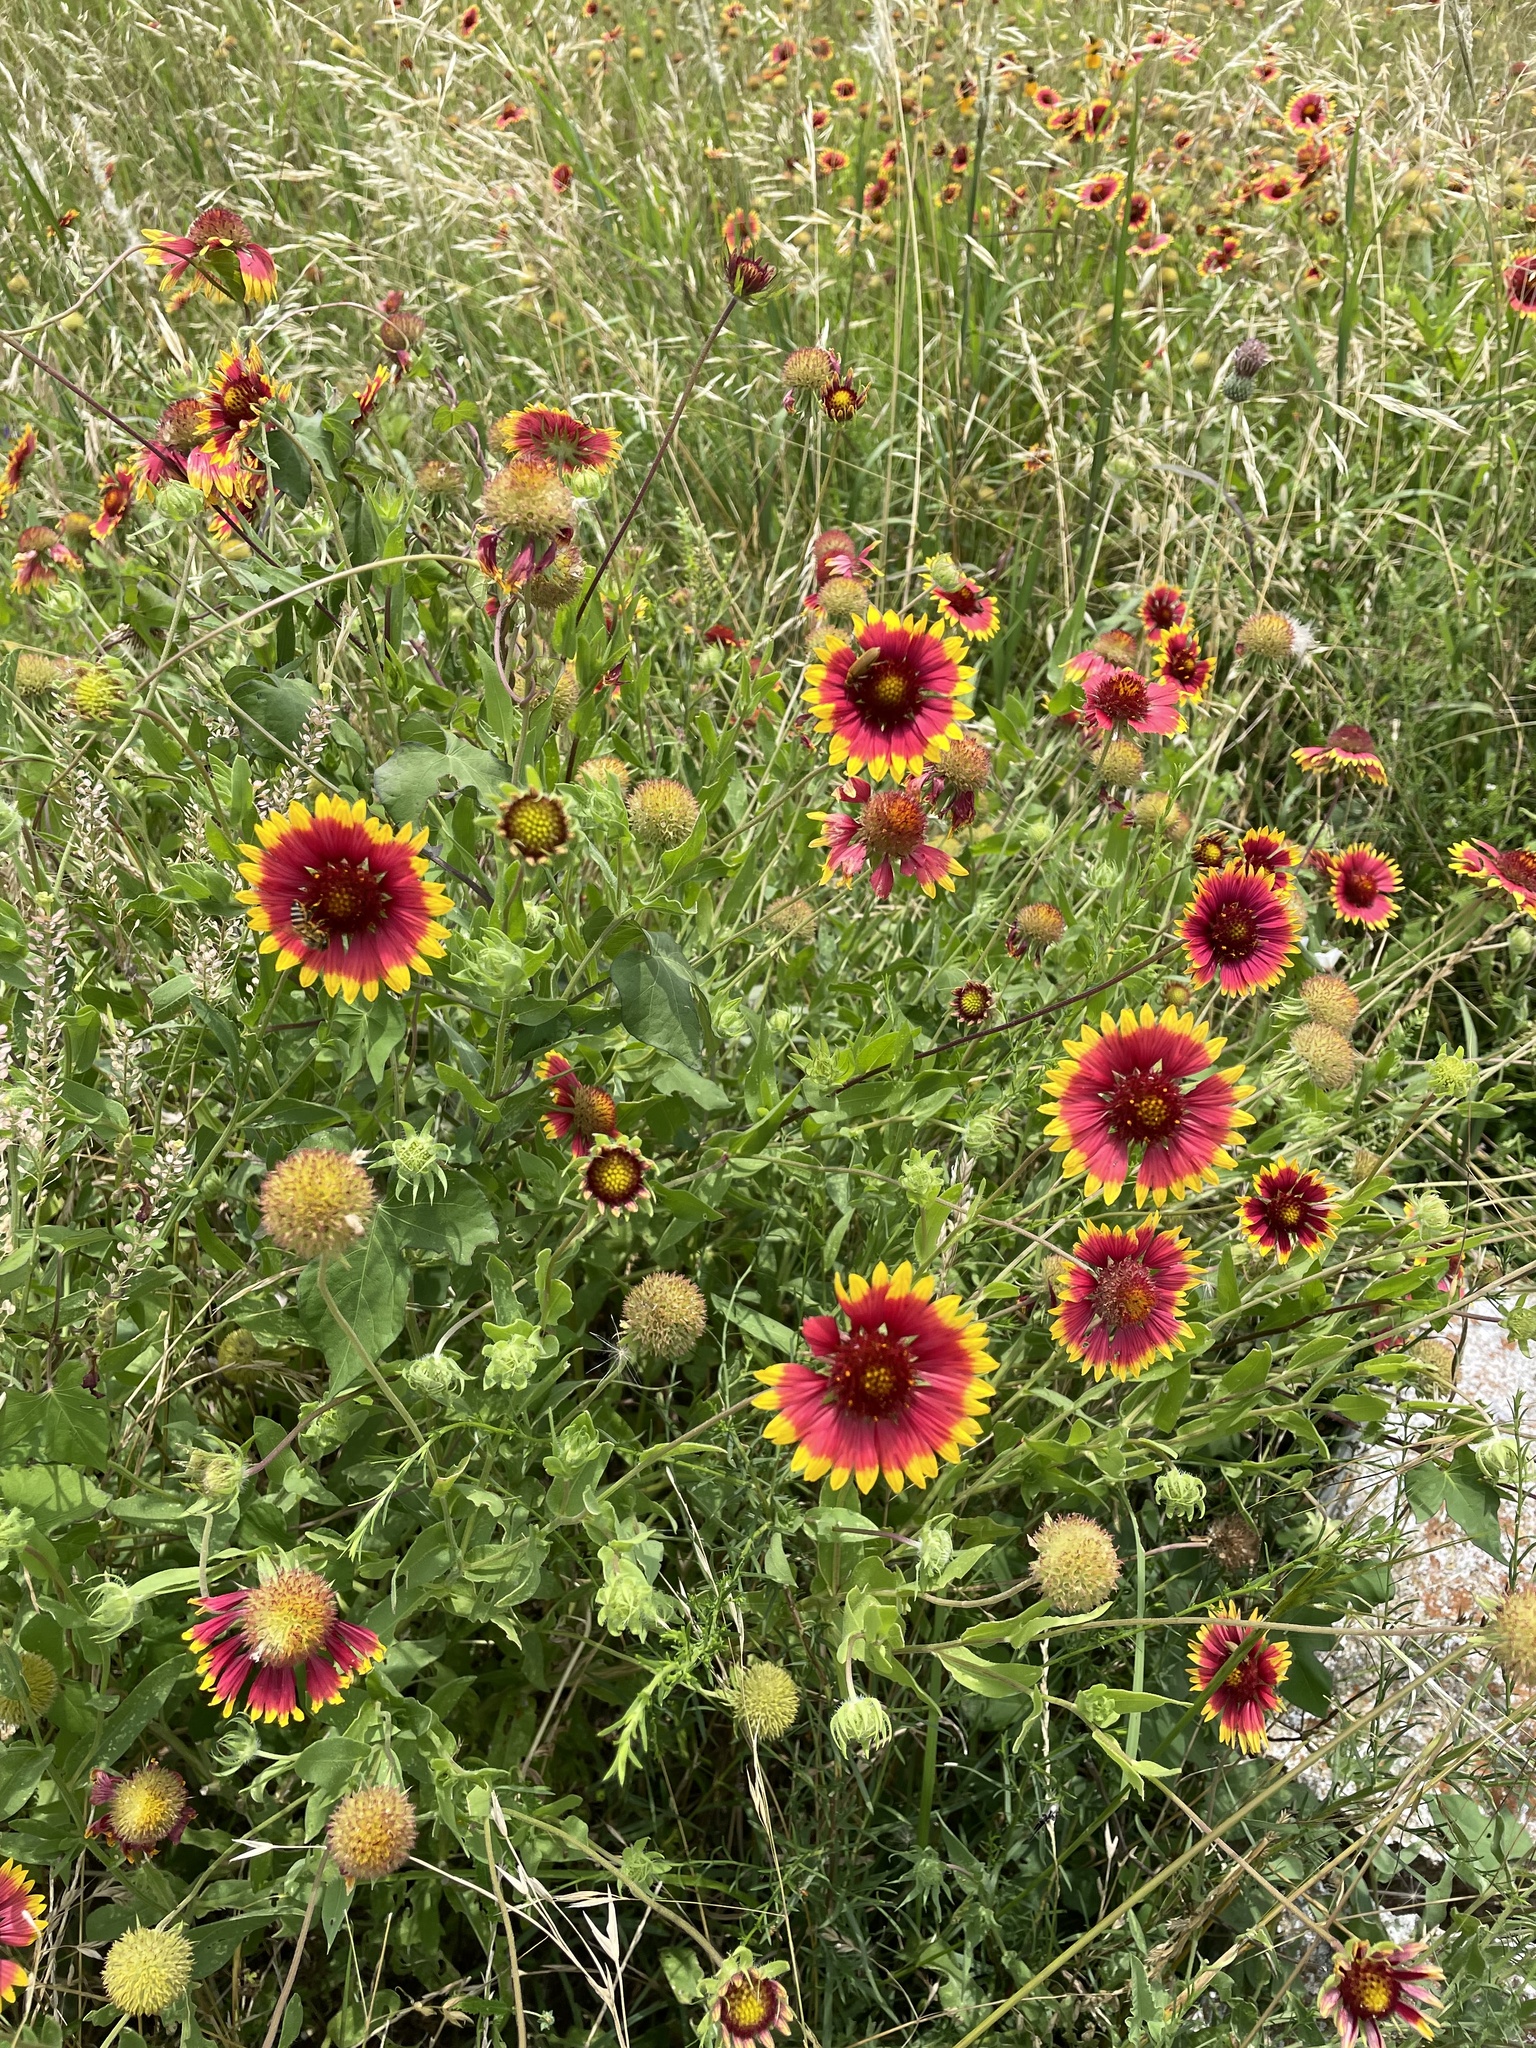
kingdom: Plantae
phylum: Tracheophyta
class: Magnoliopsida
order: Asterales
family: Asteraceae
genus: Gaillardia
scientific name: Gaillardia pulchella
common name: Firewheel
